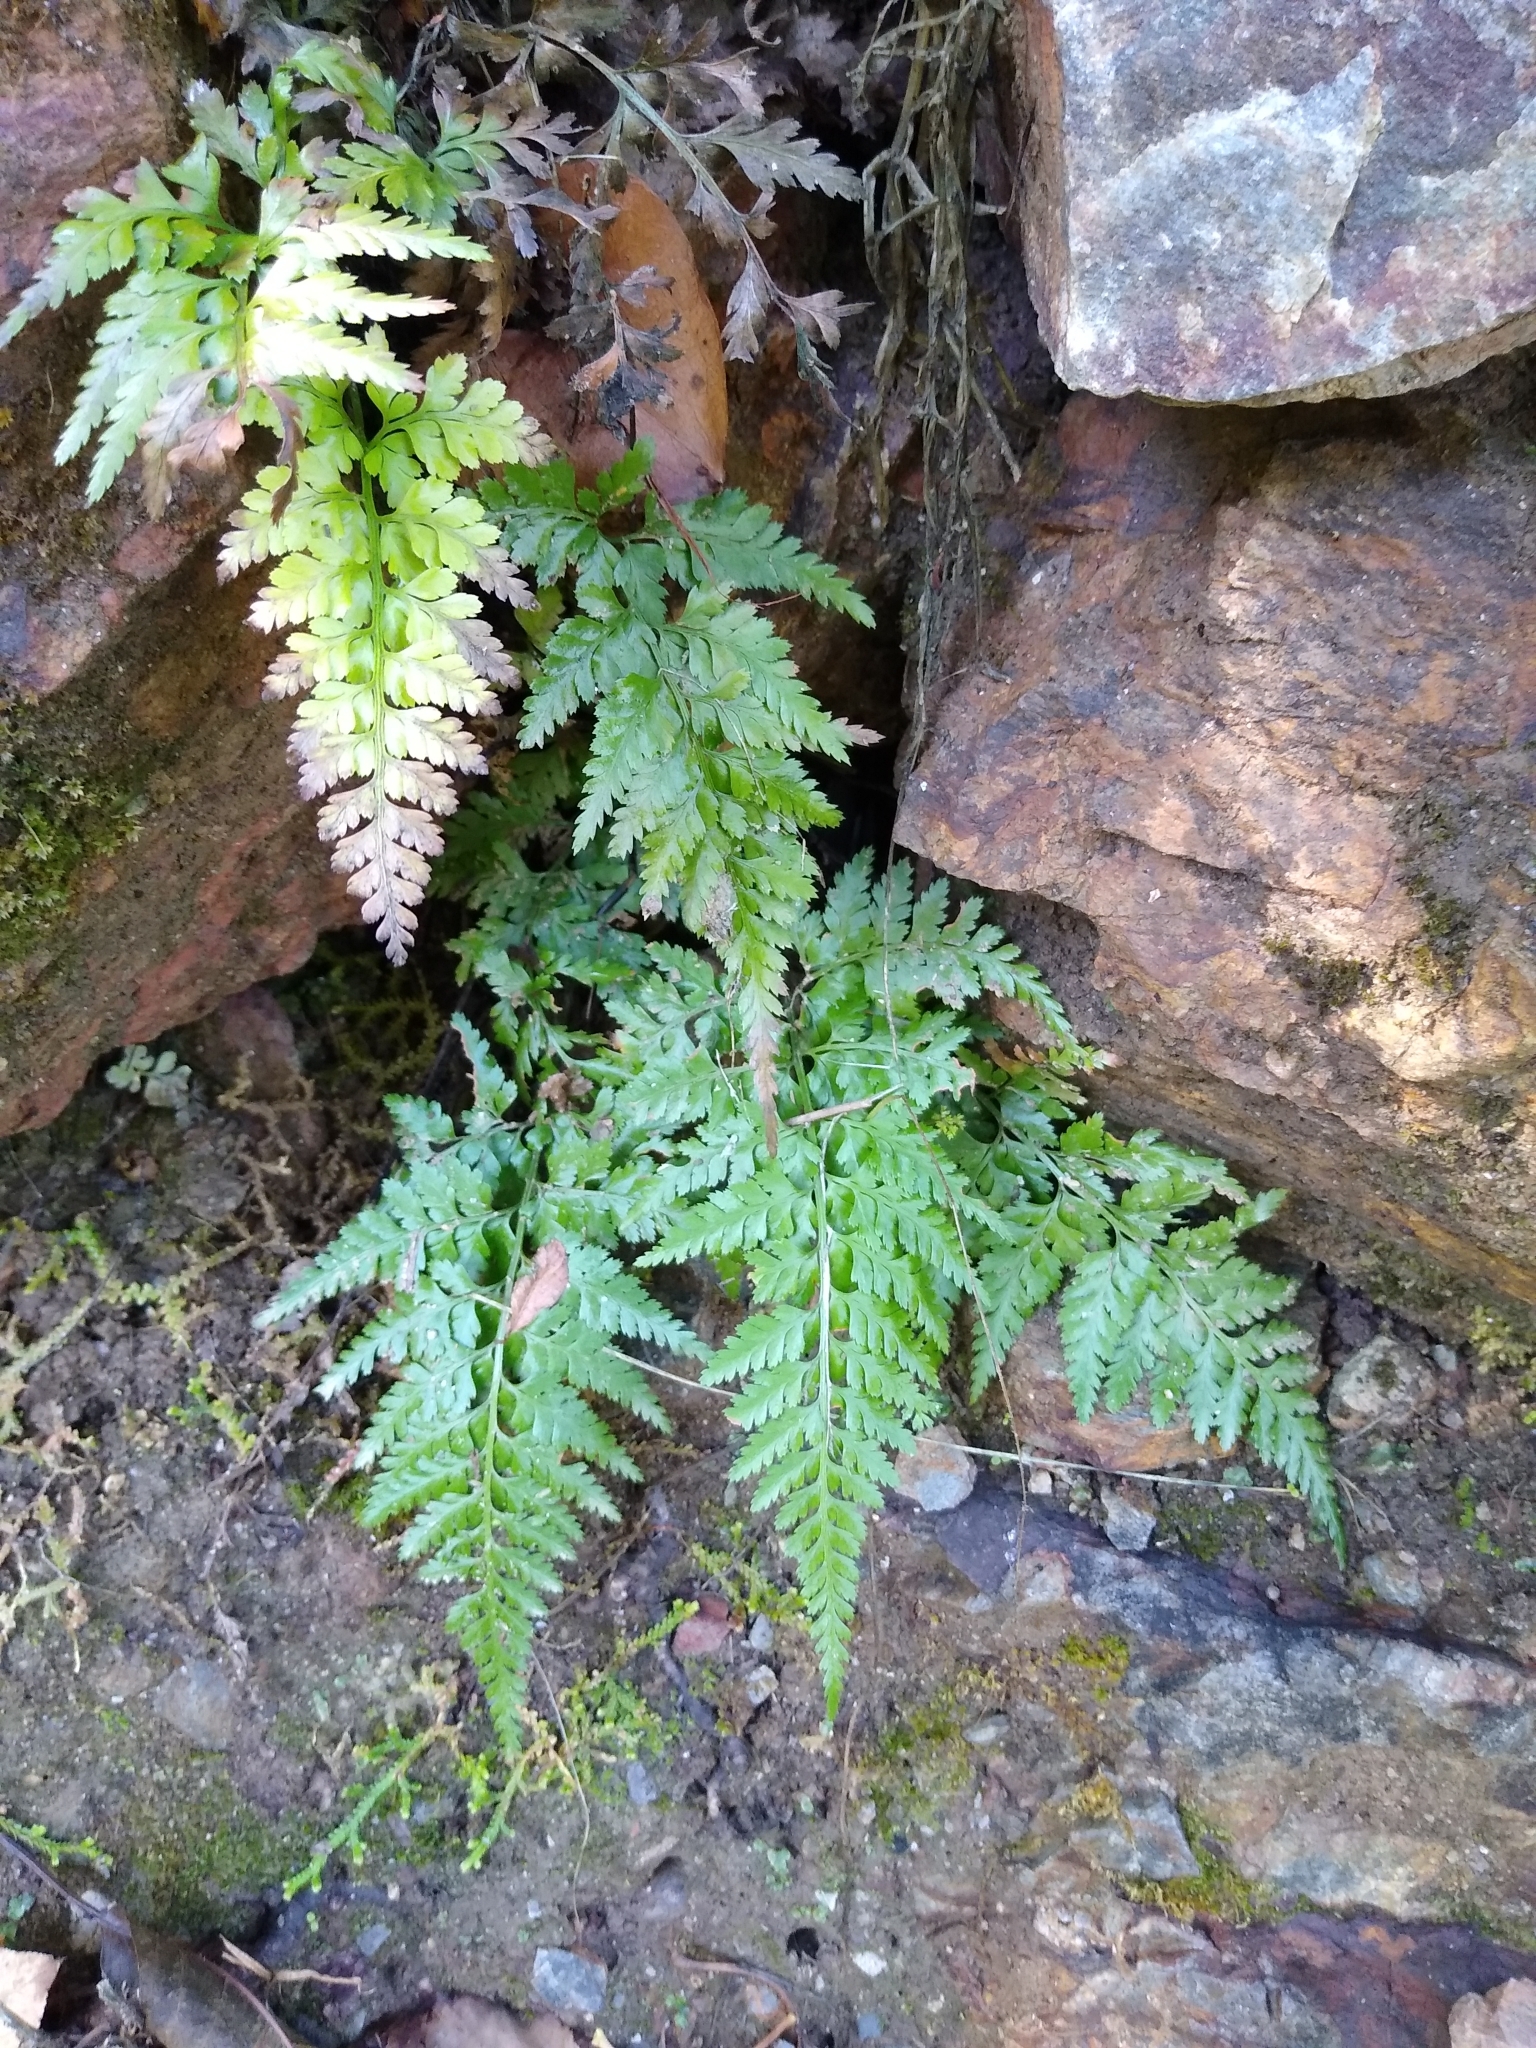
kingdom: Plantae
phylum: Tracheophyta
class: Polypodiopsida
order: Polypodiales
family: Aspleniaceae
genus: Asplenium
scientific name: Asplenium onopteris
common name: Irish spleenwort
